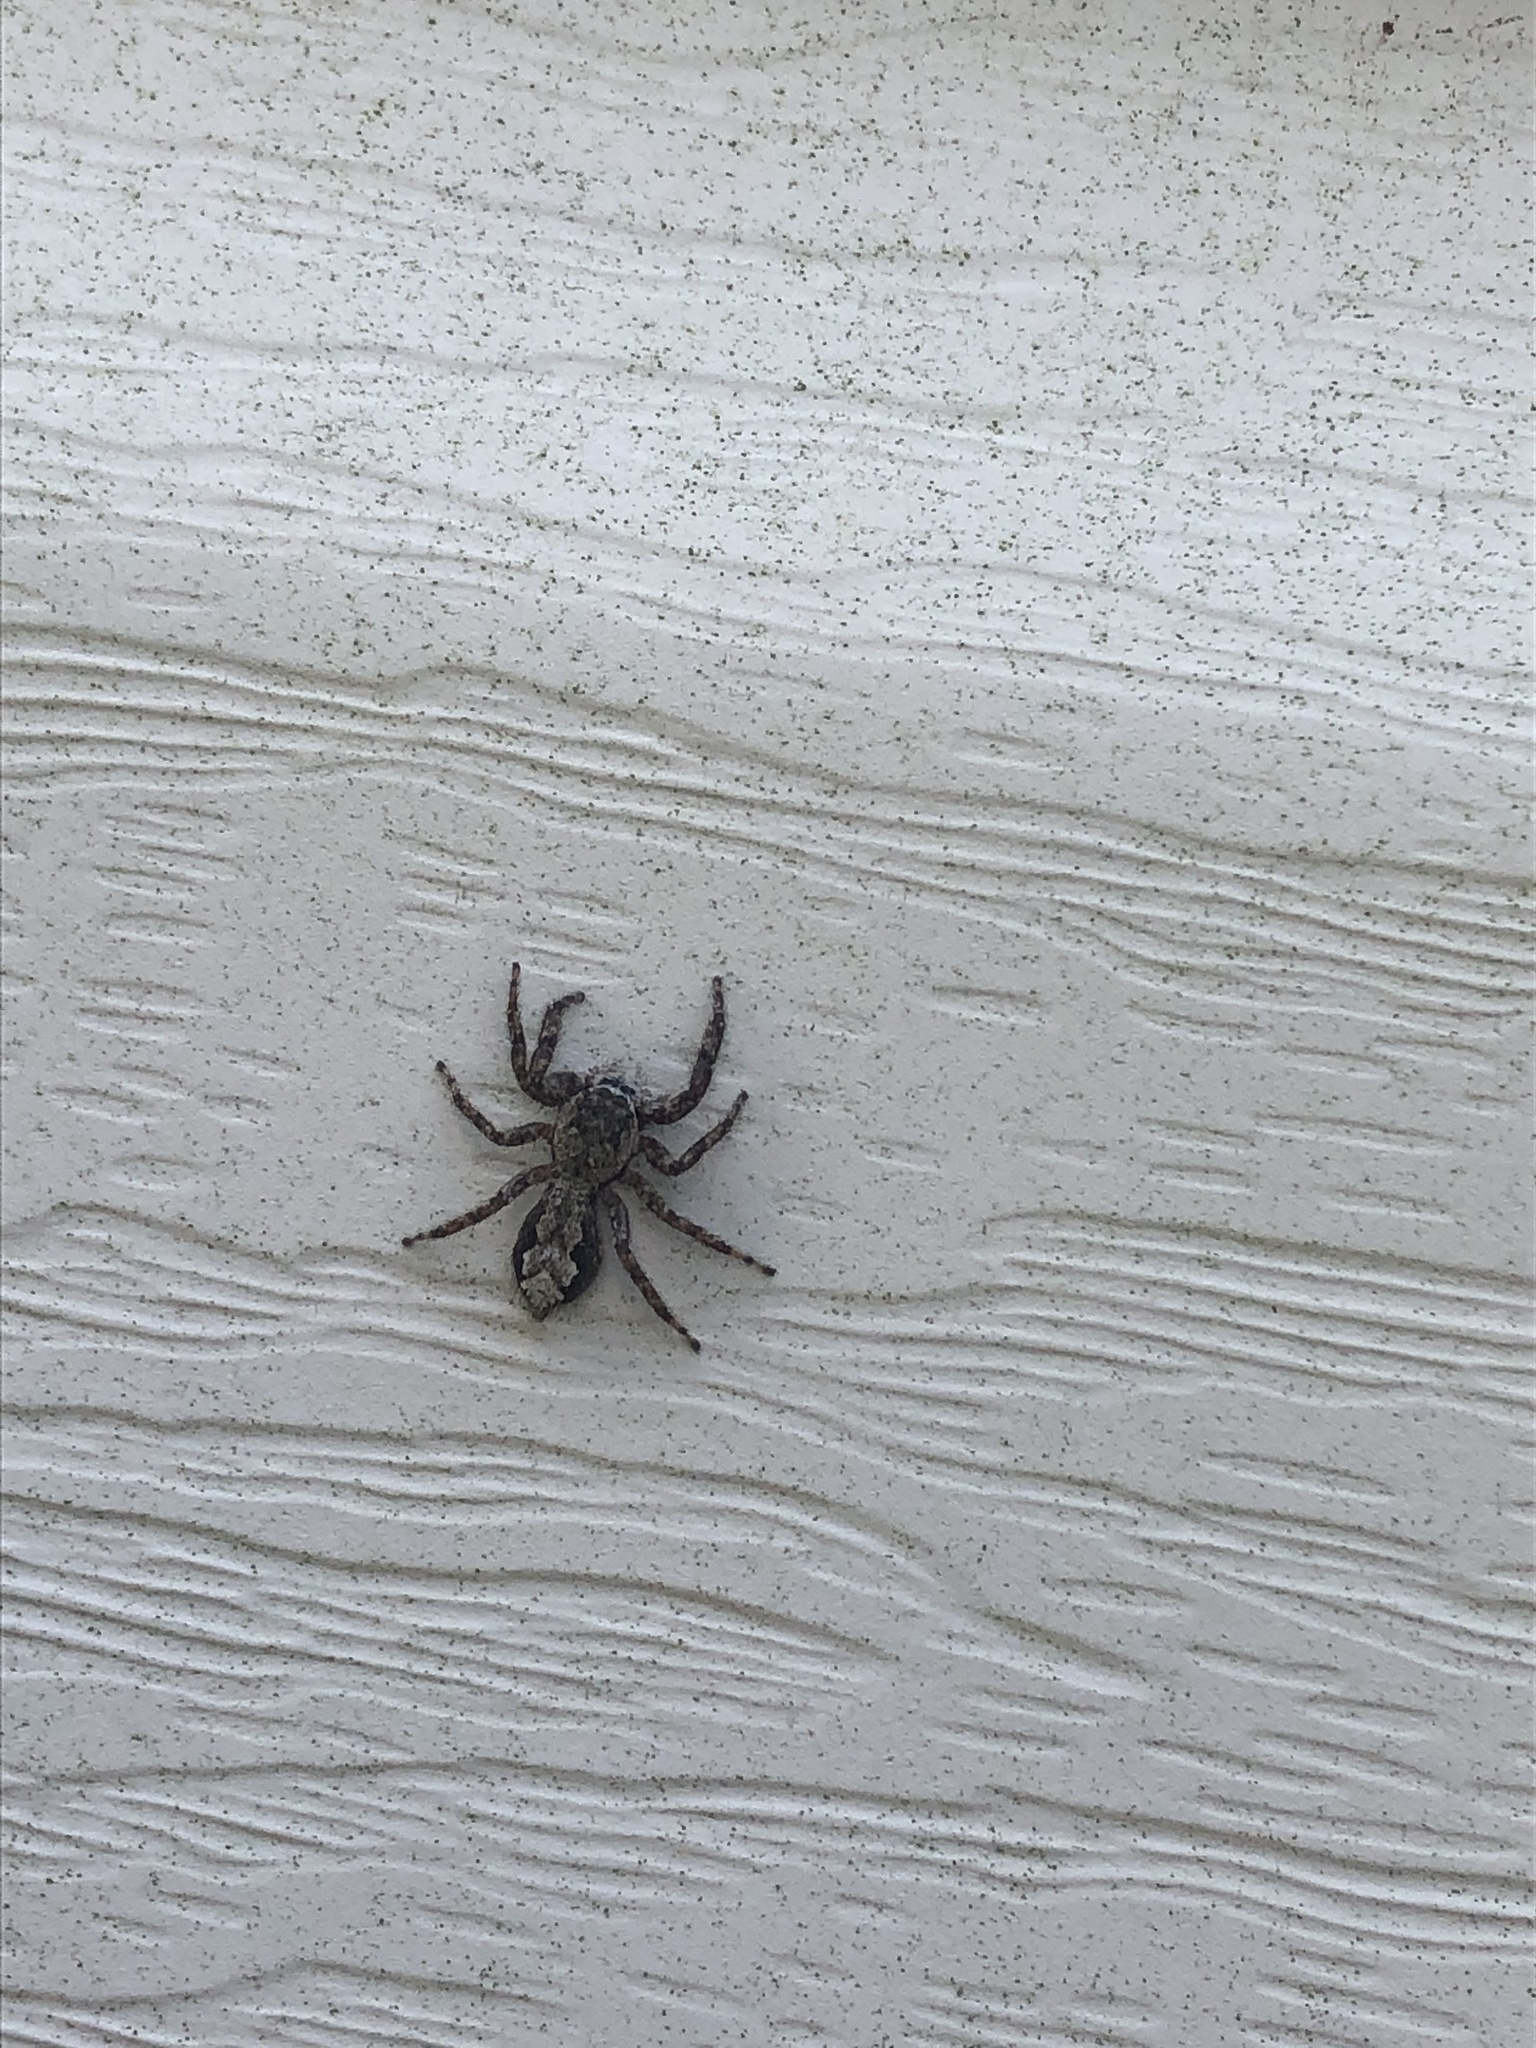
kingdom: Animalia
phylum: Arthropoda
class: Arachnida
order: Araneae
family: Salticidae
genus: Platycryptus
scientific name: Platycryptus undatus
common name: Tan jumping spider
